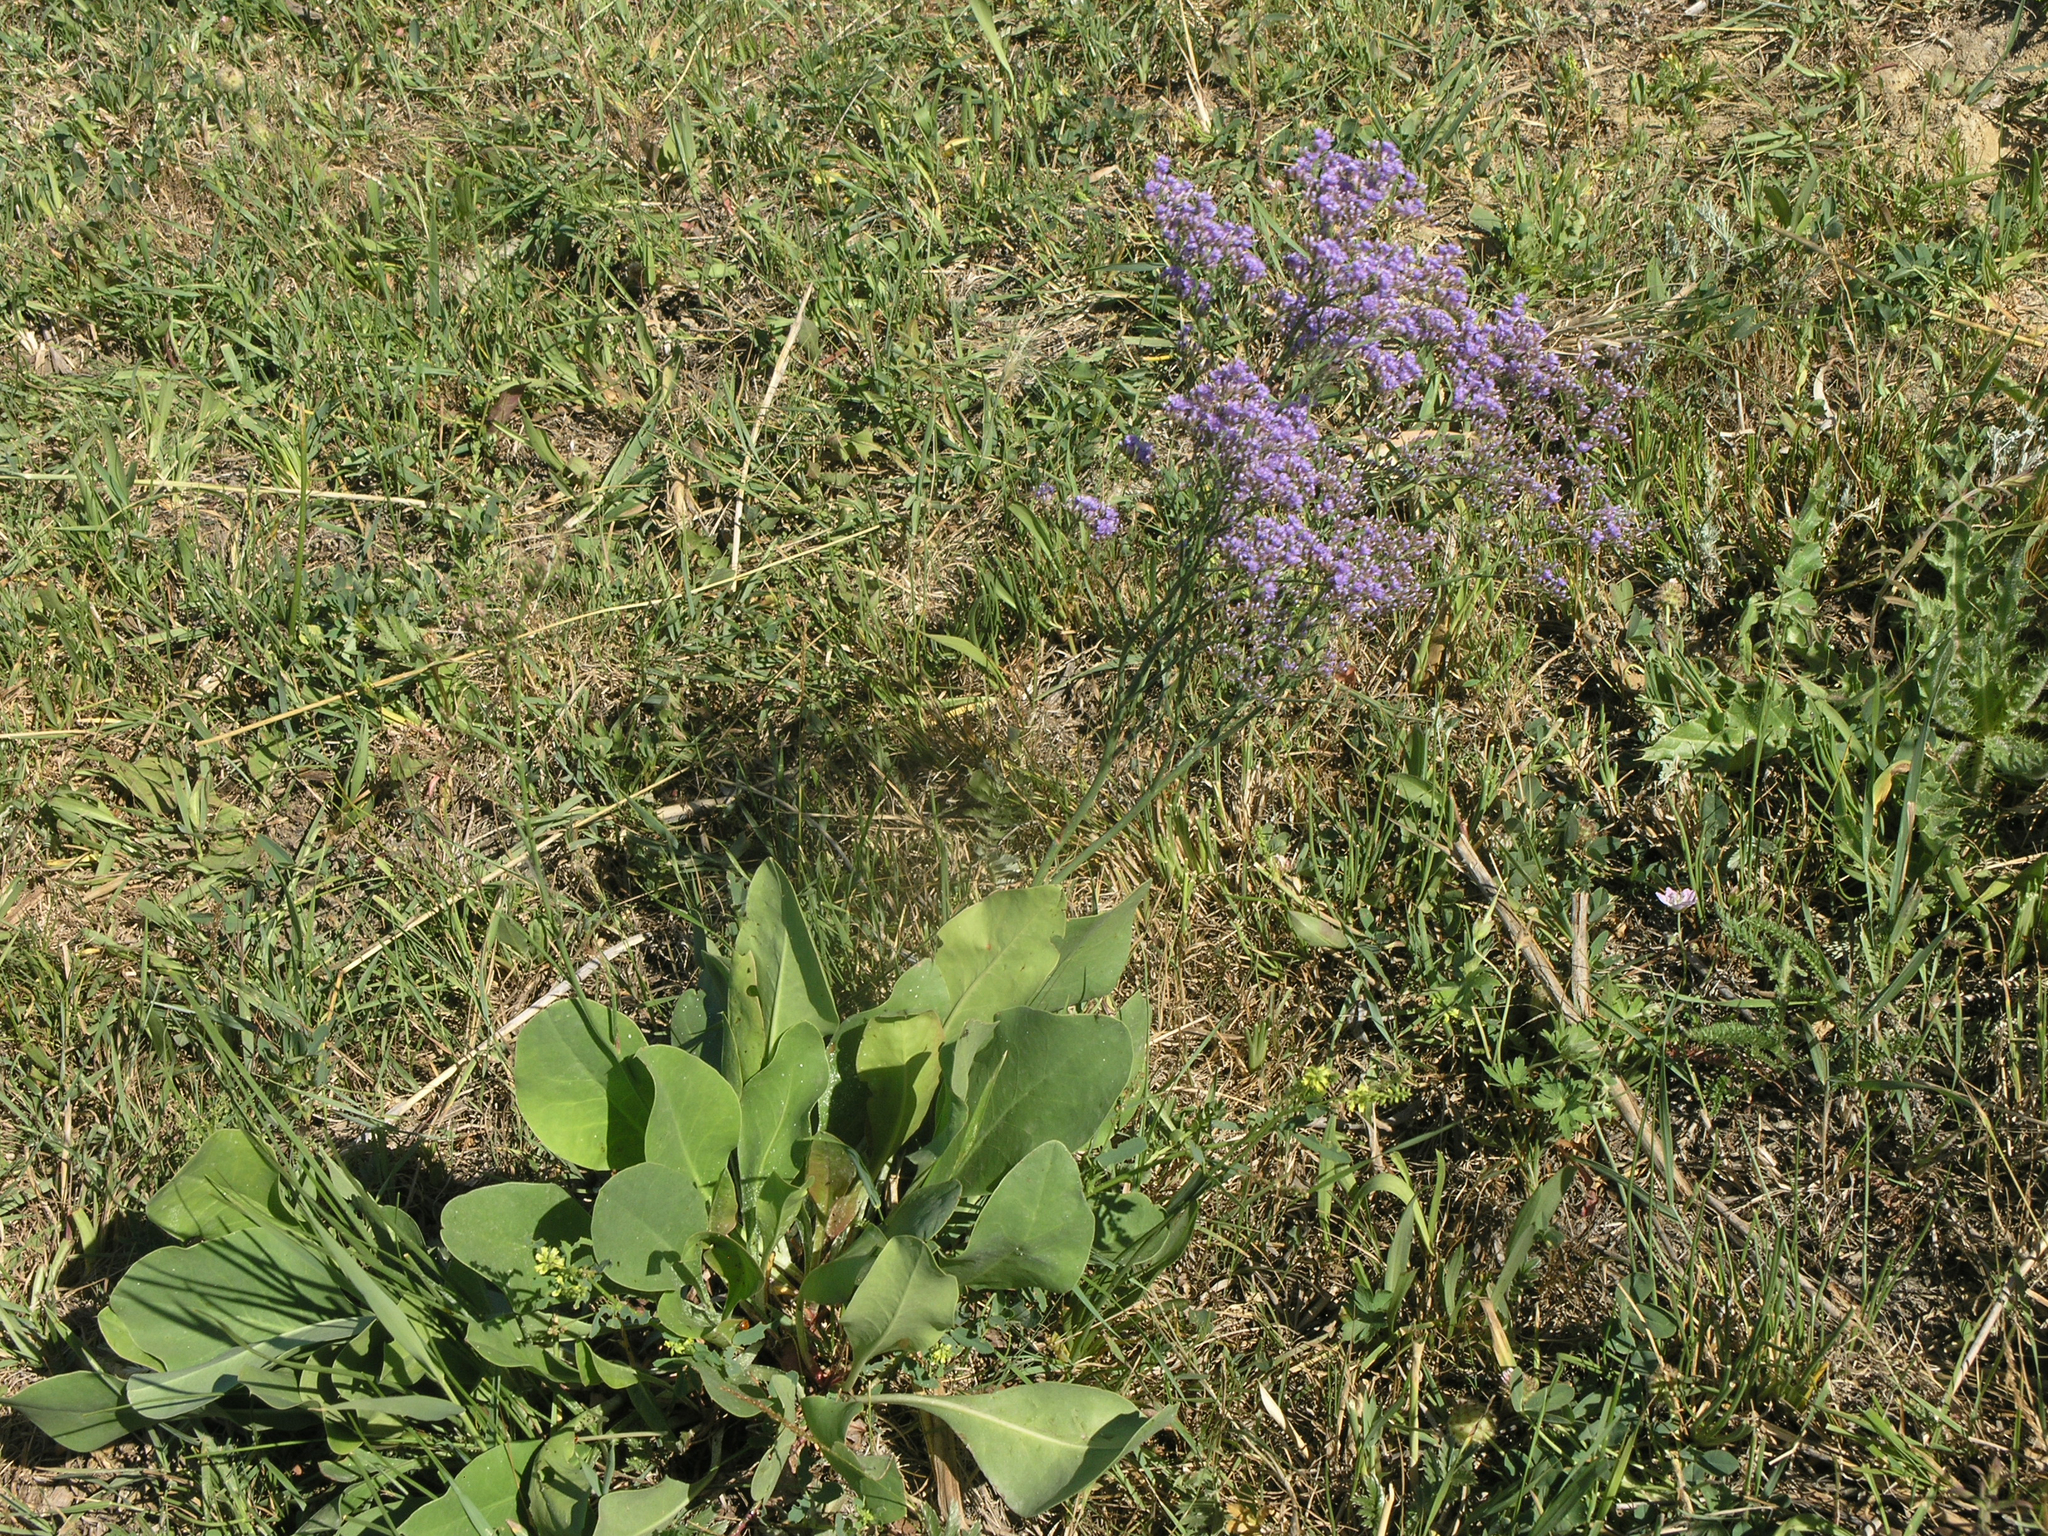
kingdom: Plantae
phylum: Tracheophyta
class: Magnoliopsida
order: Caryophyllales
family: Plumbaginaceae
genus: Limonium
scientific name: Limonium gmelini
